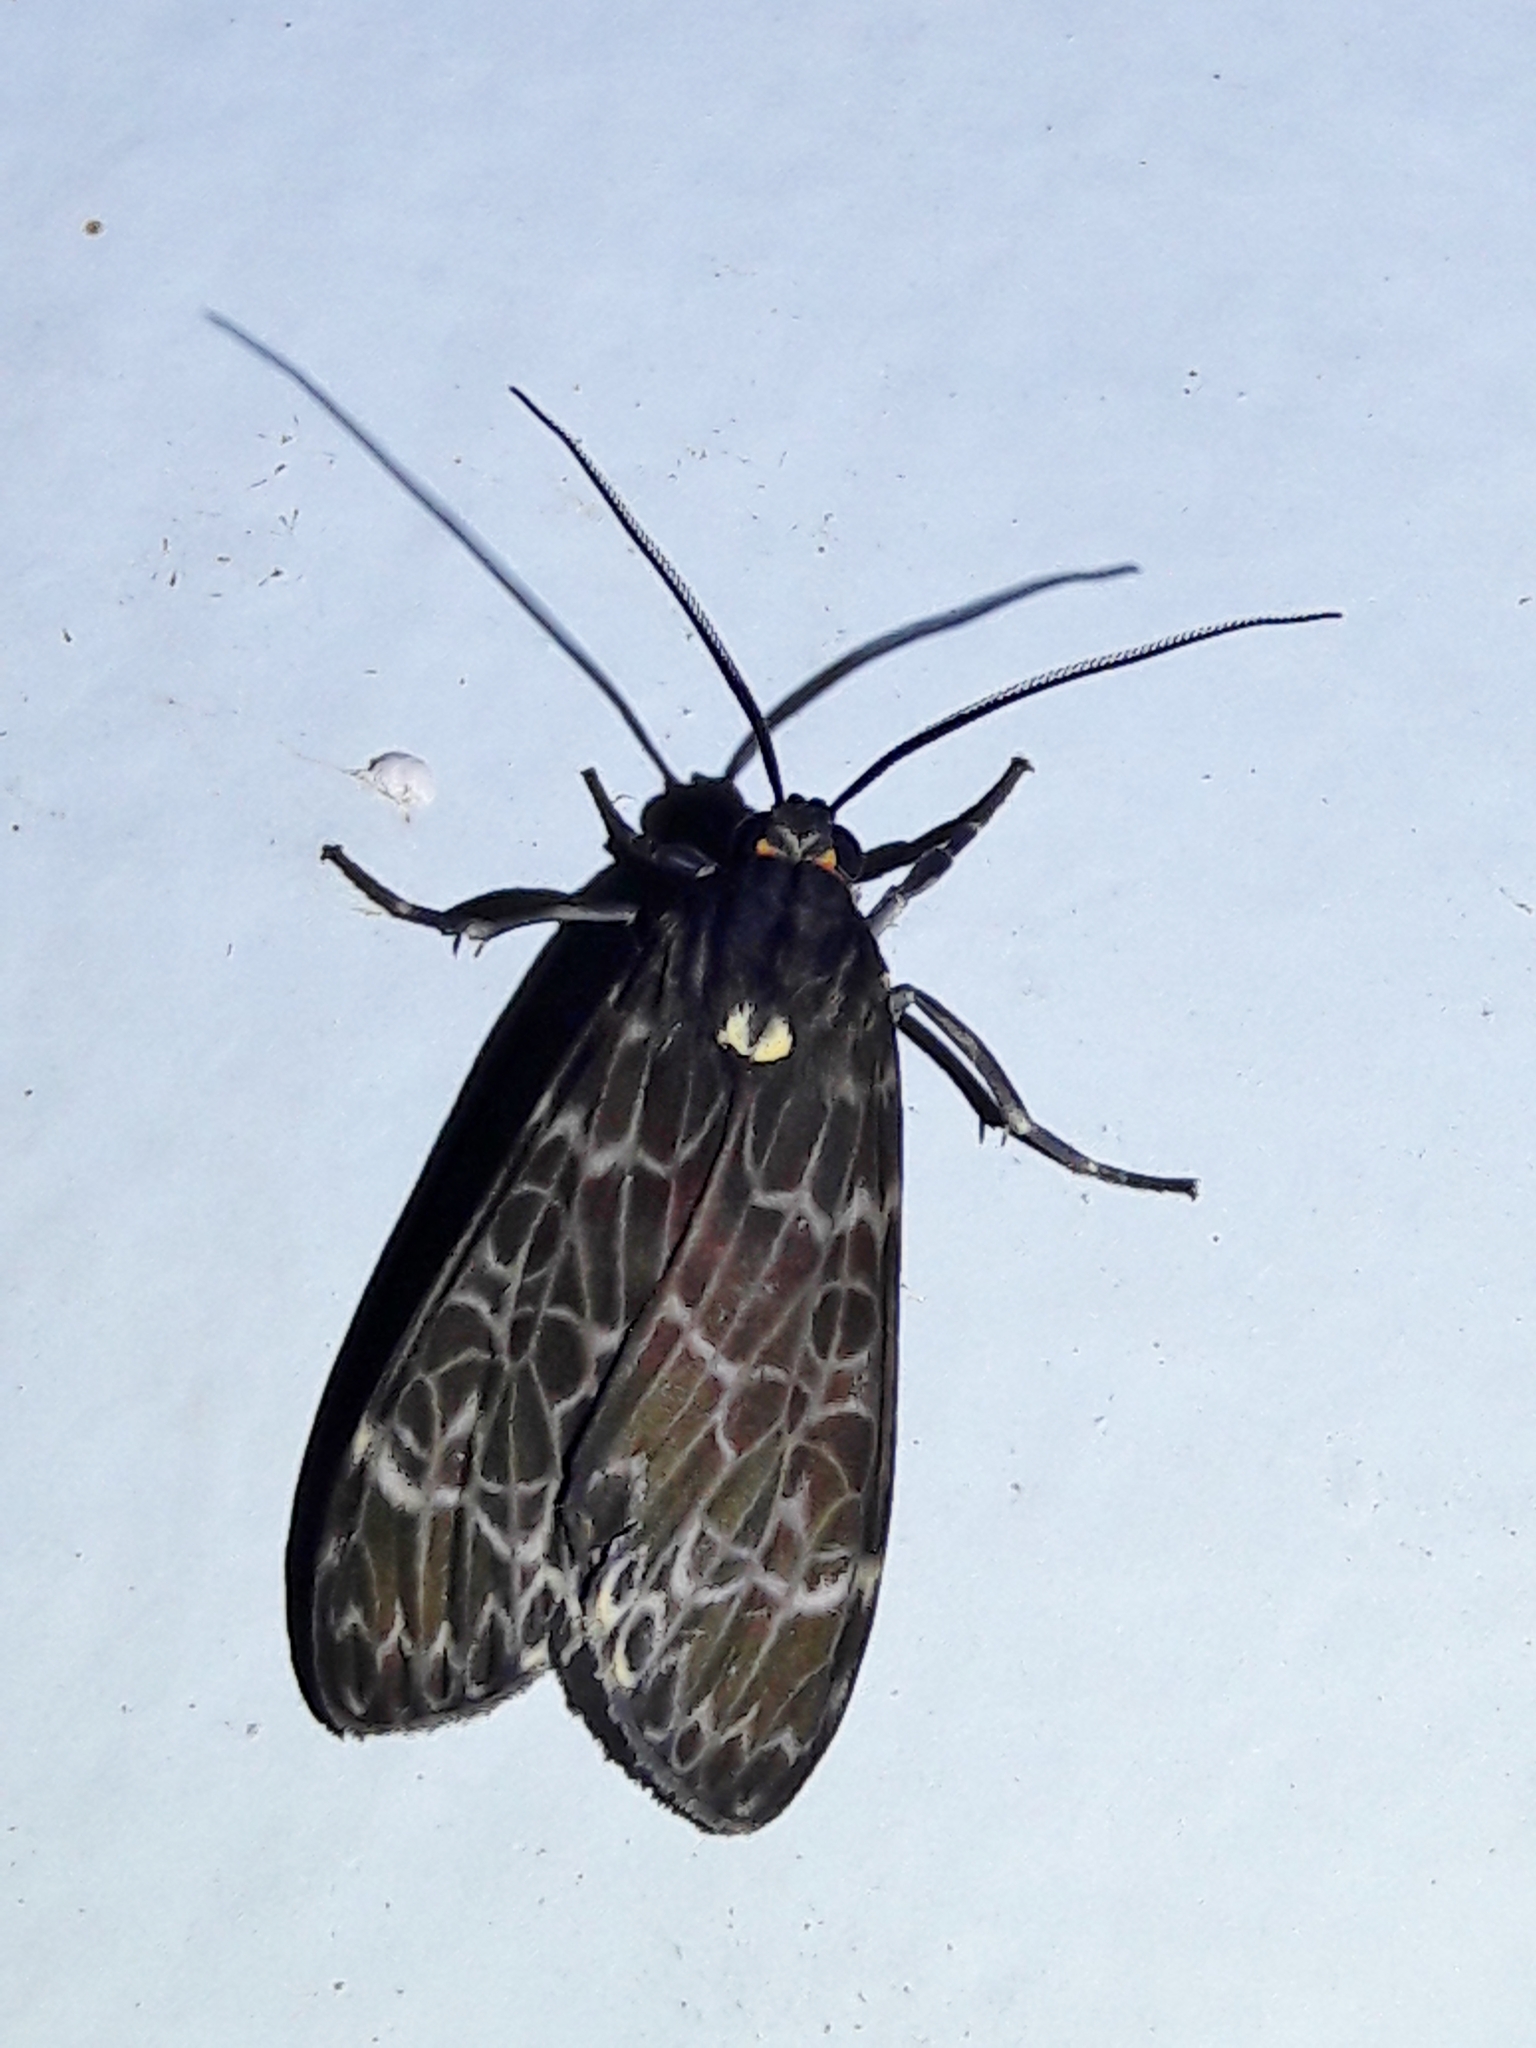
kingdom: Animalia
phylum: Arthropoda
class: Insecta
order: Lepidoptera
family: Erebidae
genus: Eucereon
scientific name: Eucereon sylvius
